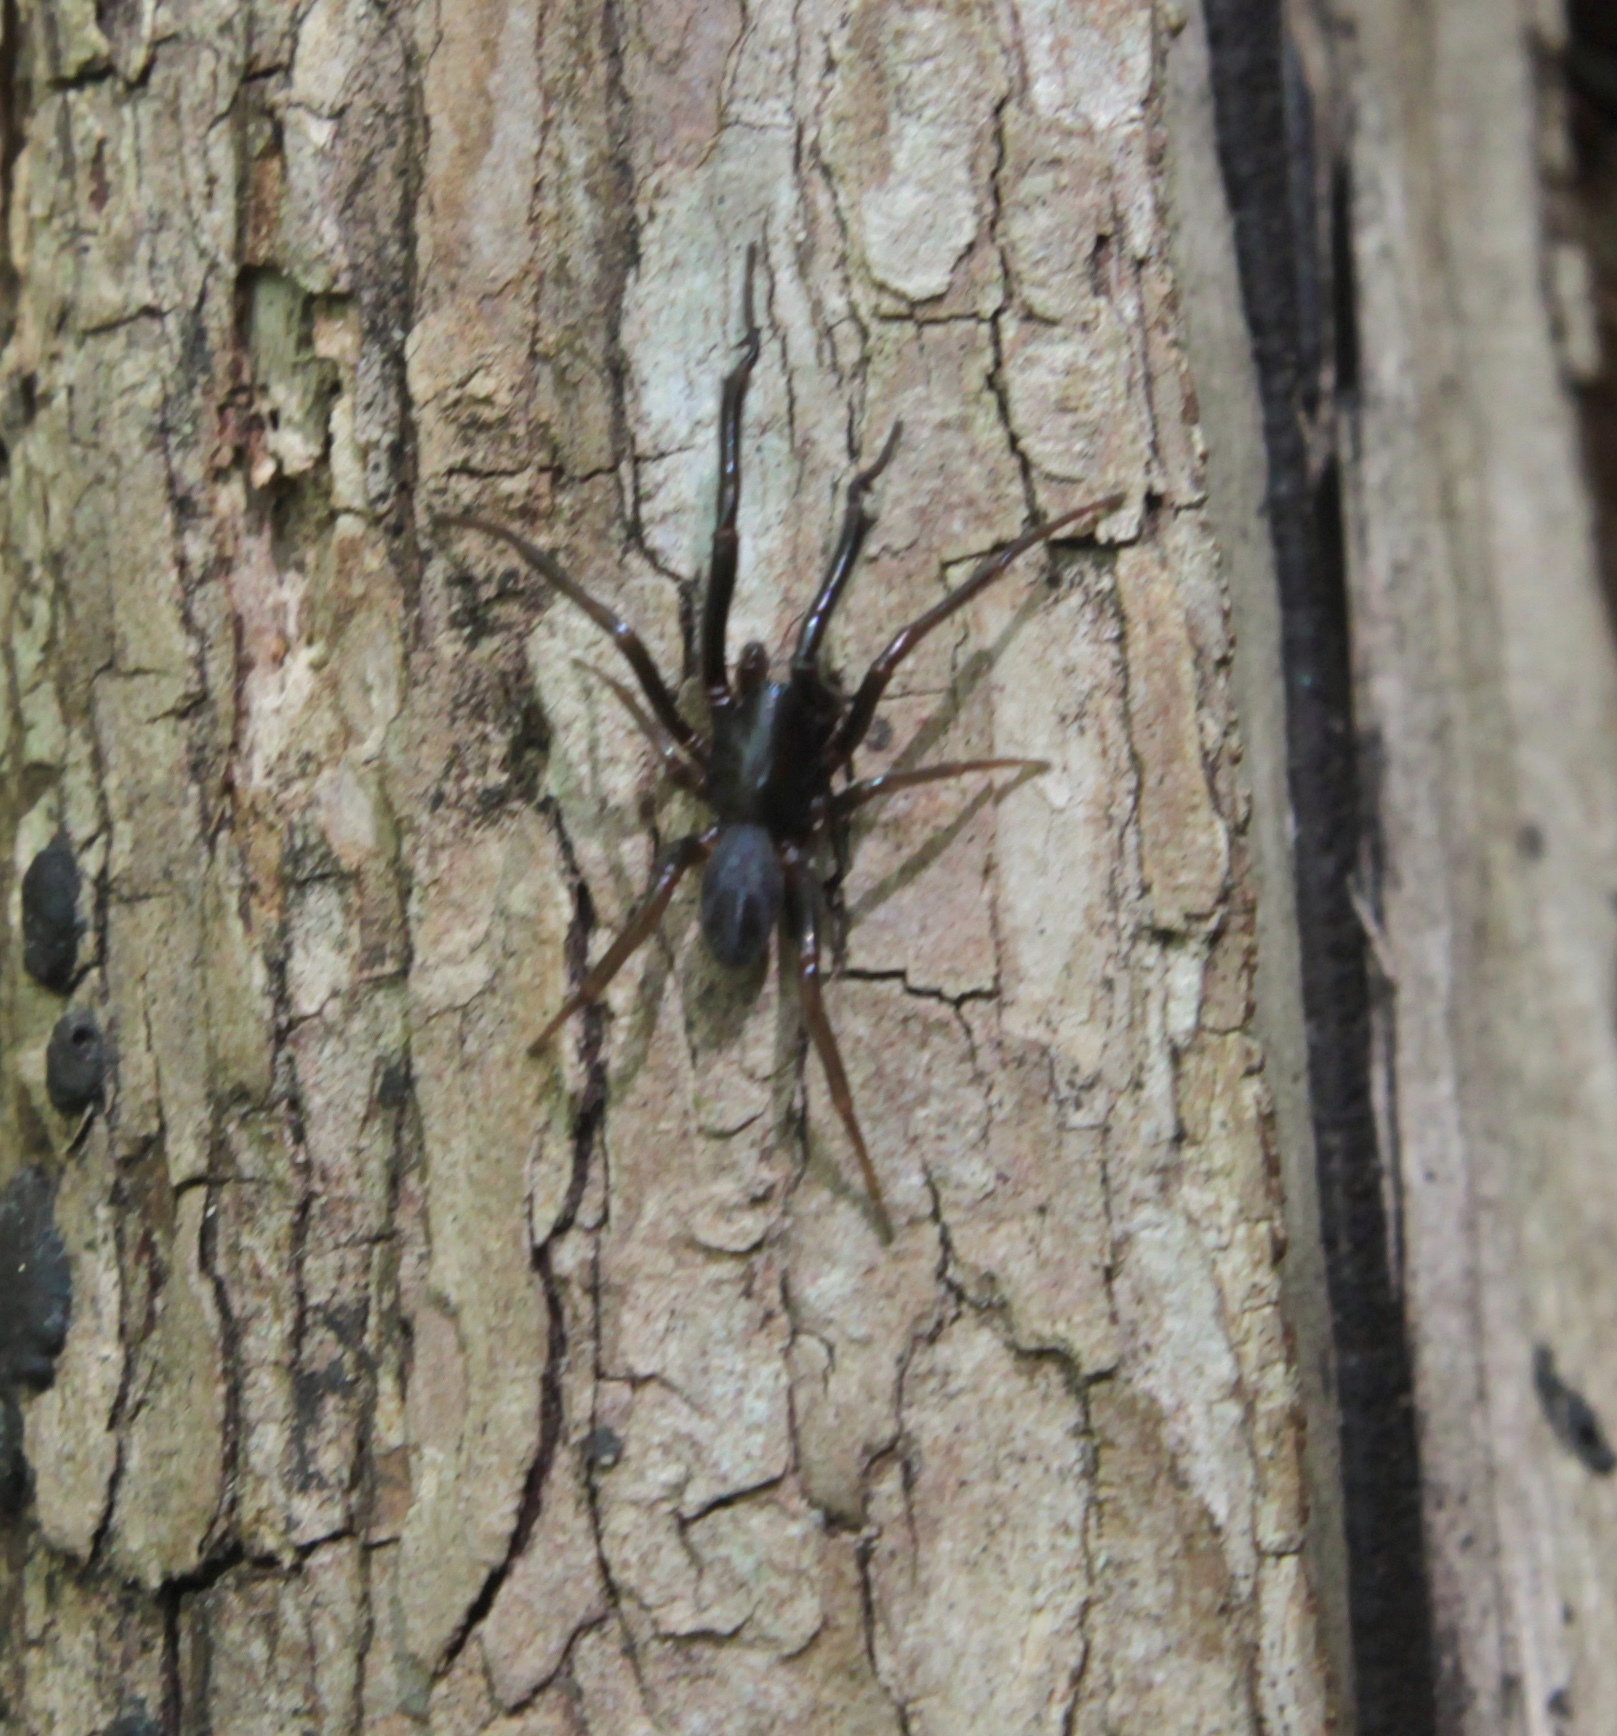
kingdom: Animalia
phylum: Arthropoda
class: Arachnida
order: Araneae
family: Segestriidae
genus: Ariadna
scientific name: Ariadna bicolor
